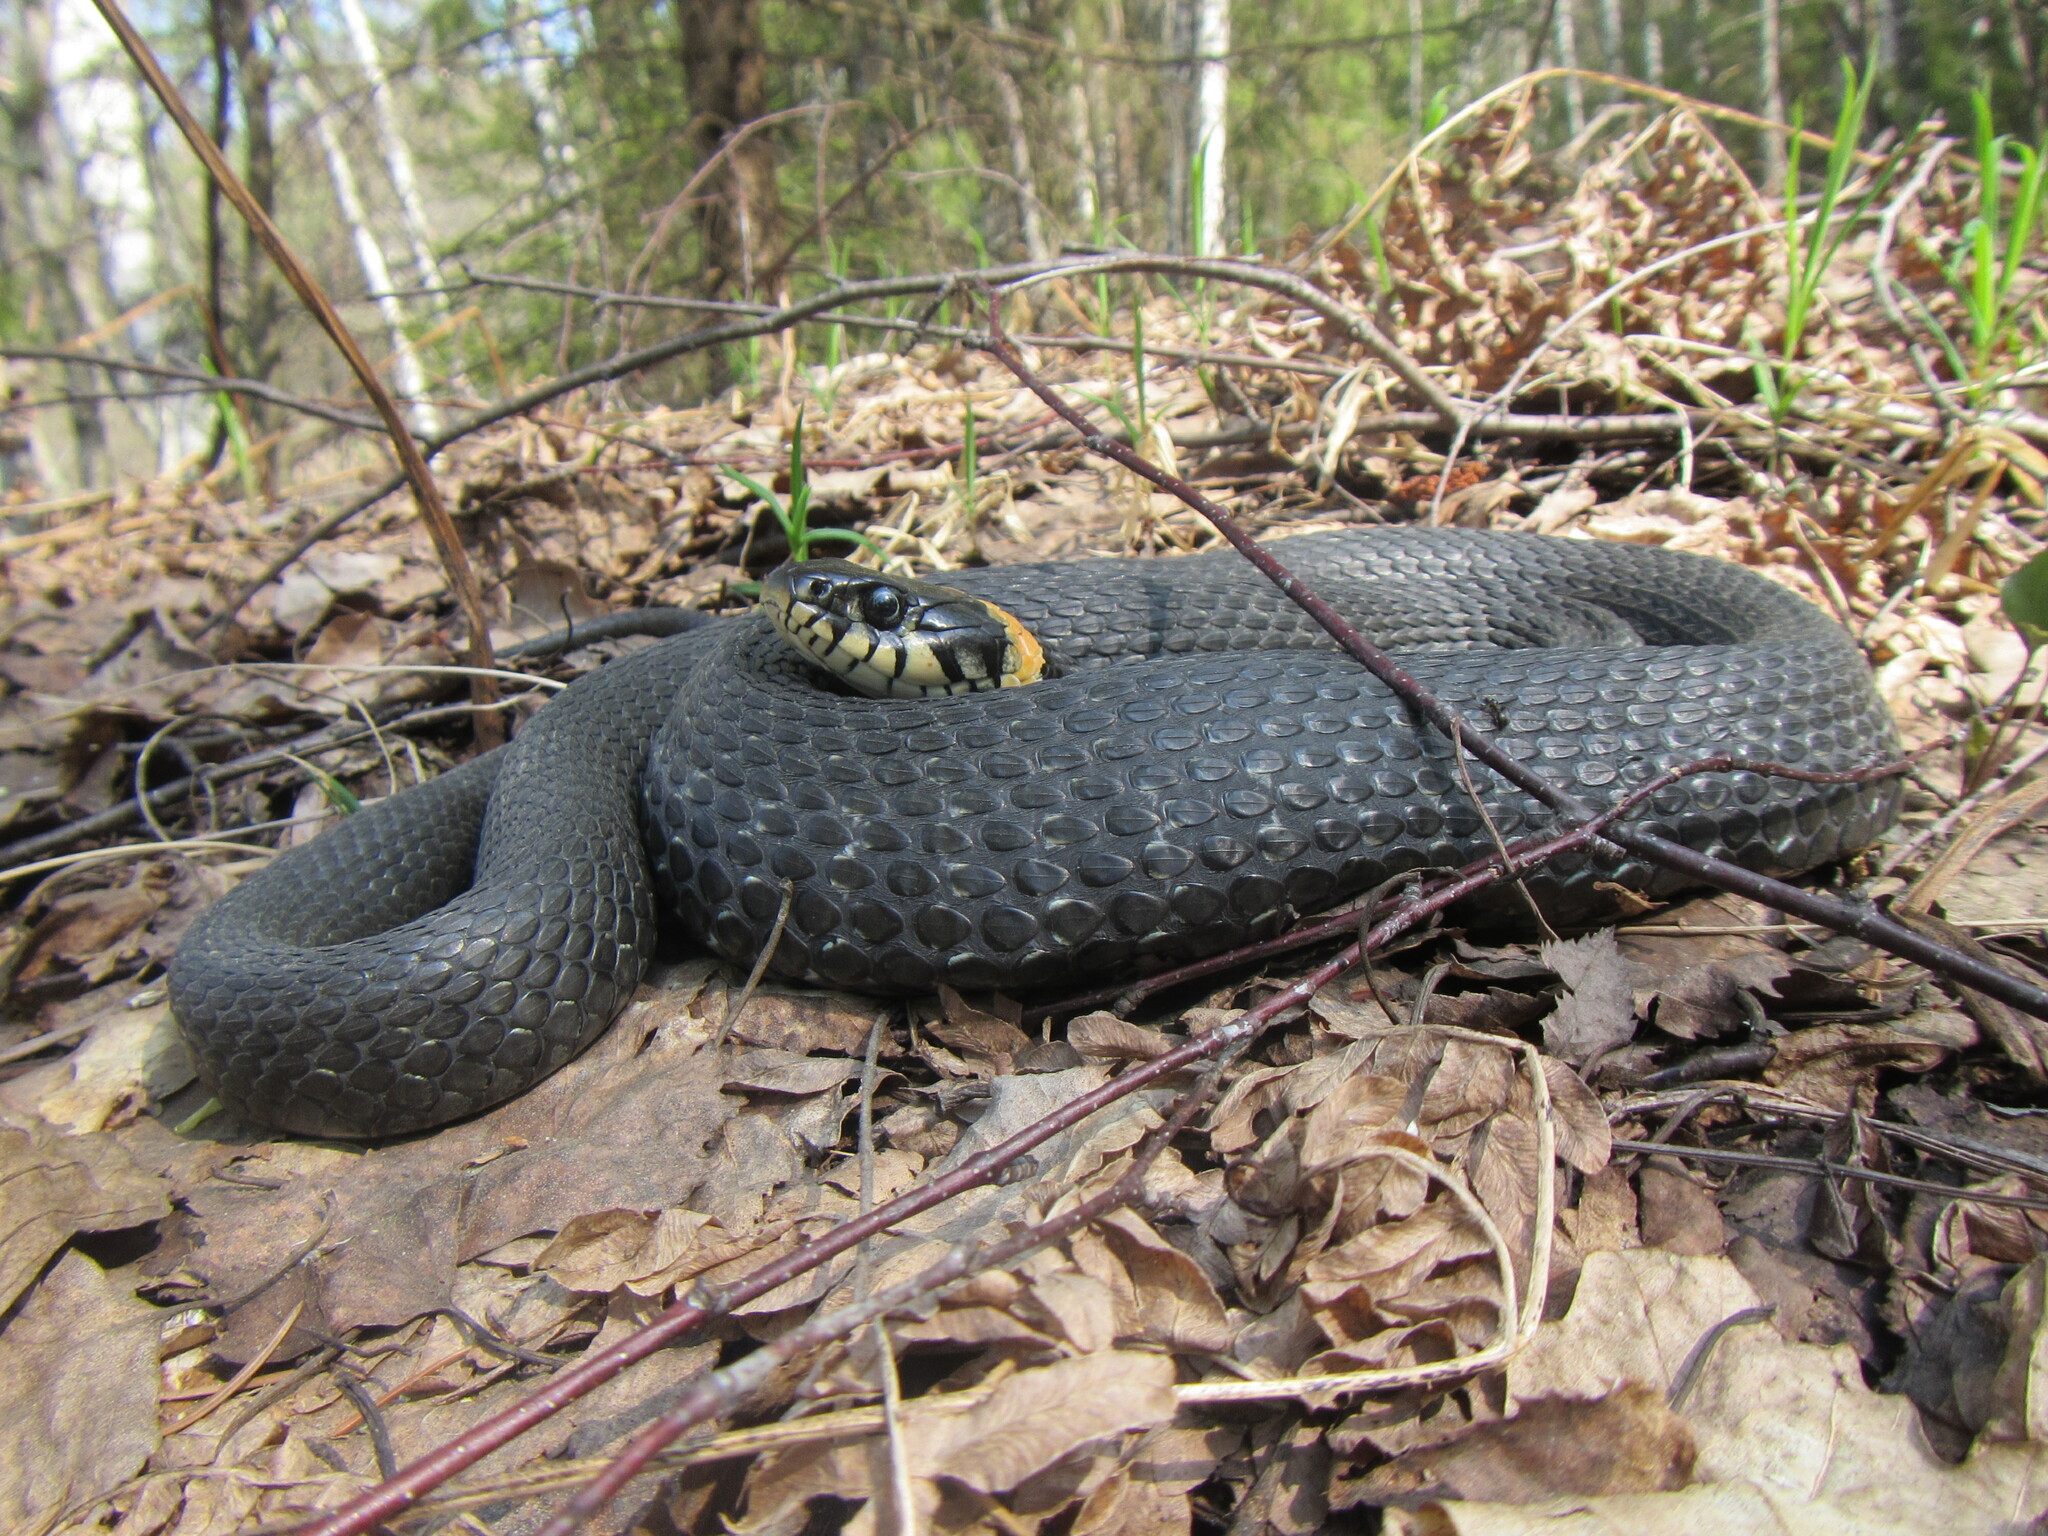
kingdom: Animalia
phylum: Chordata
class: Squamata
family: Colubridae
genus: Natrix
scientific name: Natrix natrix
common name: Grass snake
